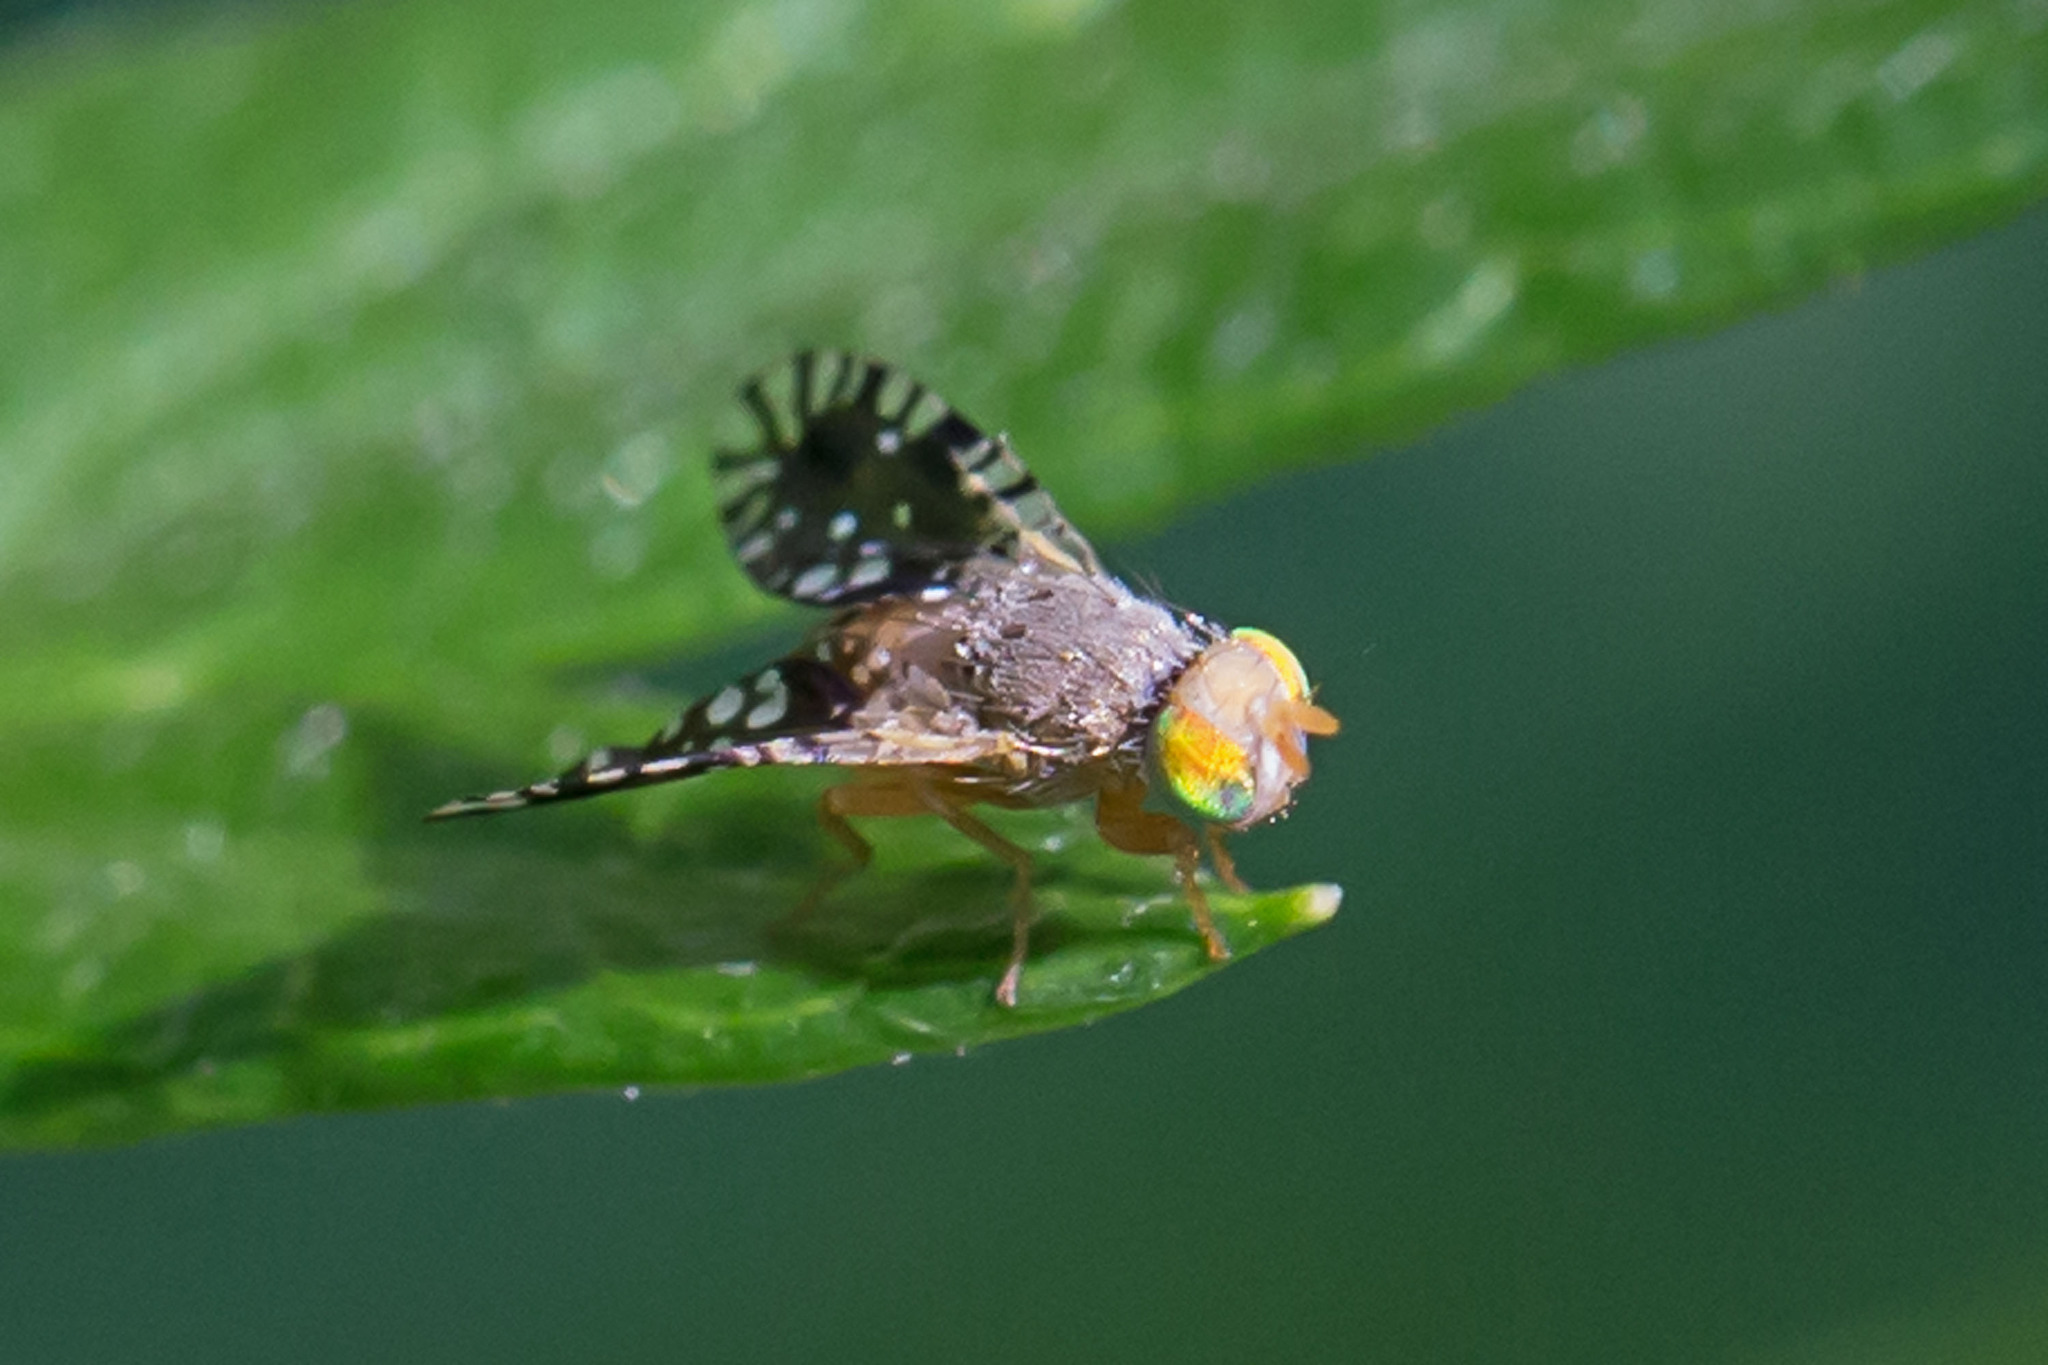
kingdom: Animalia
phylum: Arthropoda
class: Insecta
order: Diptera
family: Tephritidae
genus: Euaresta
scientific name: Euaresta bella
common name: Common ragweed fruit fly
